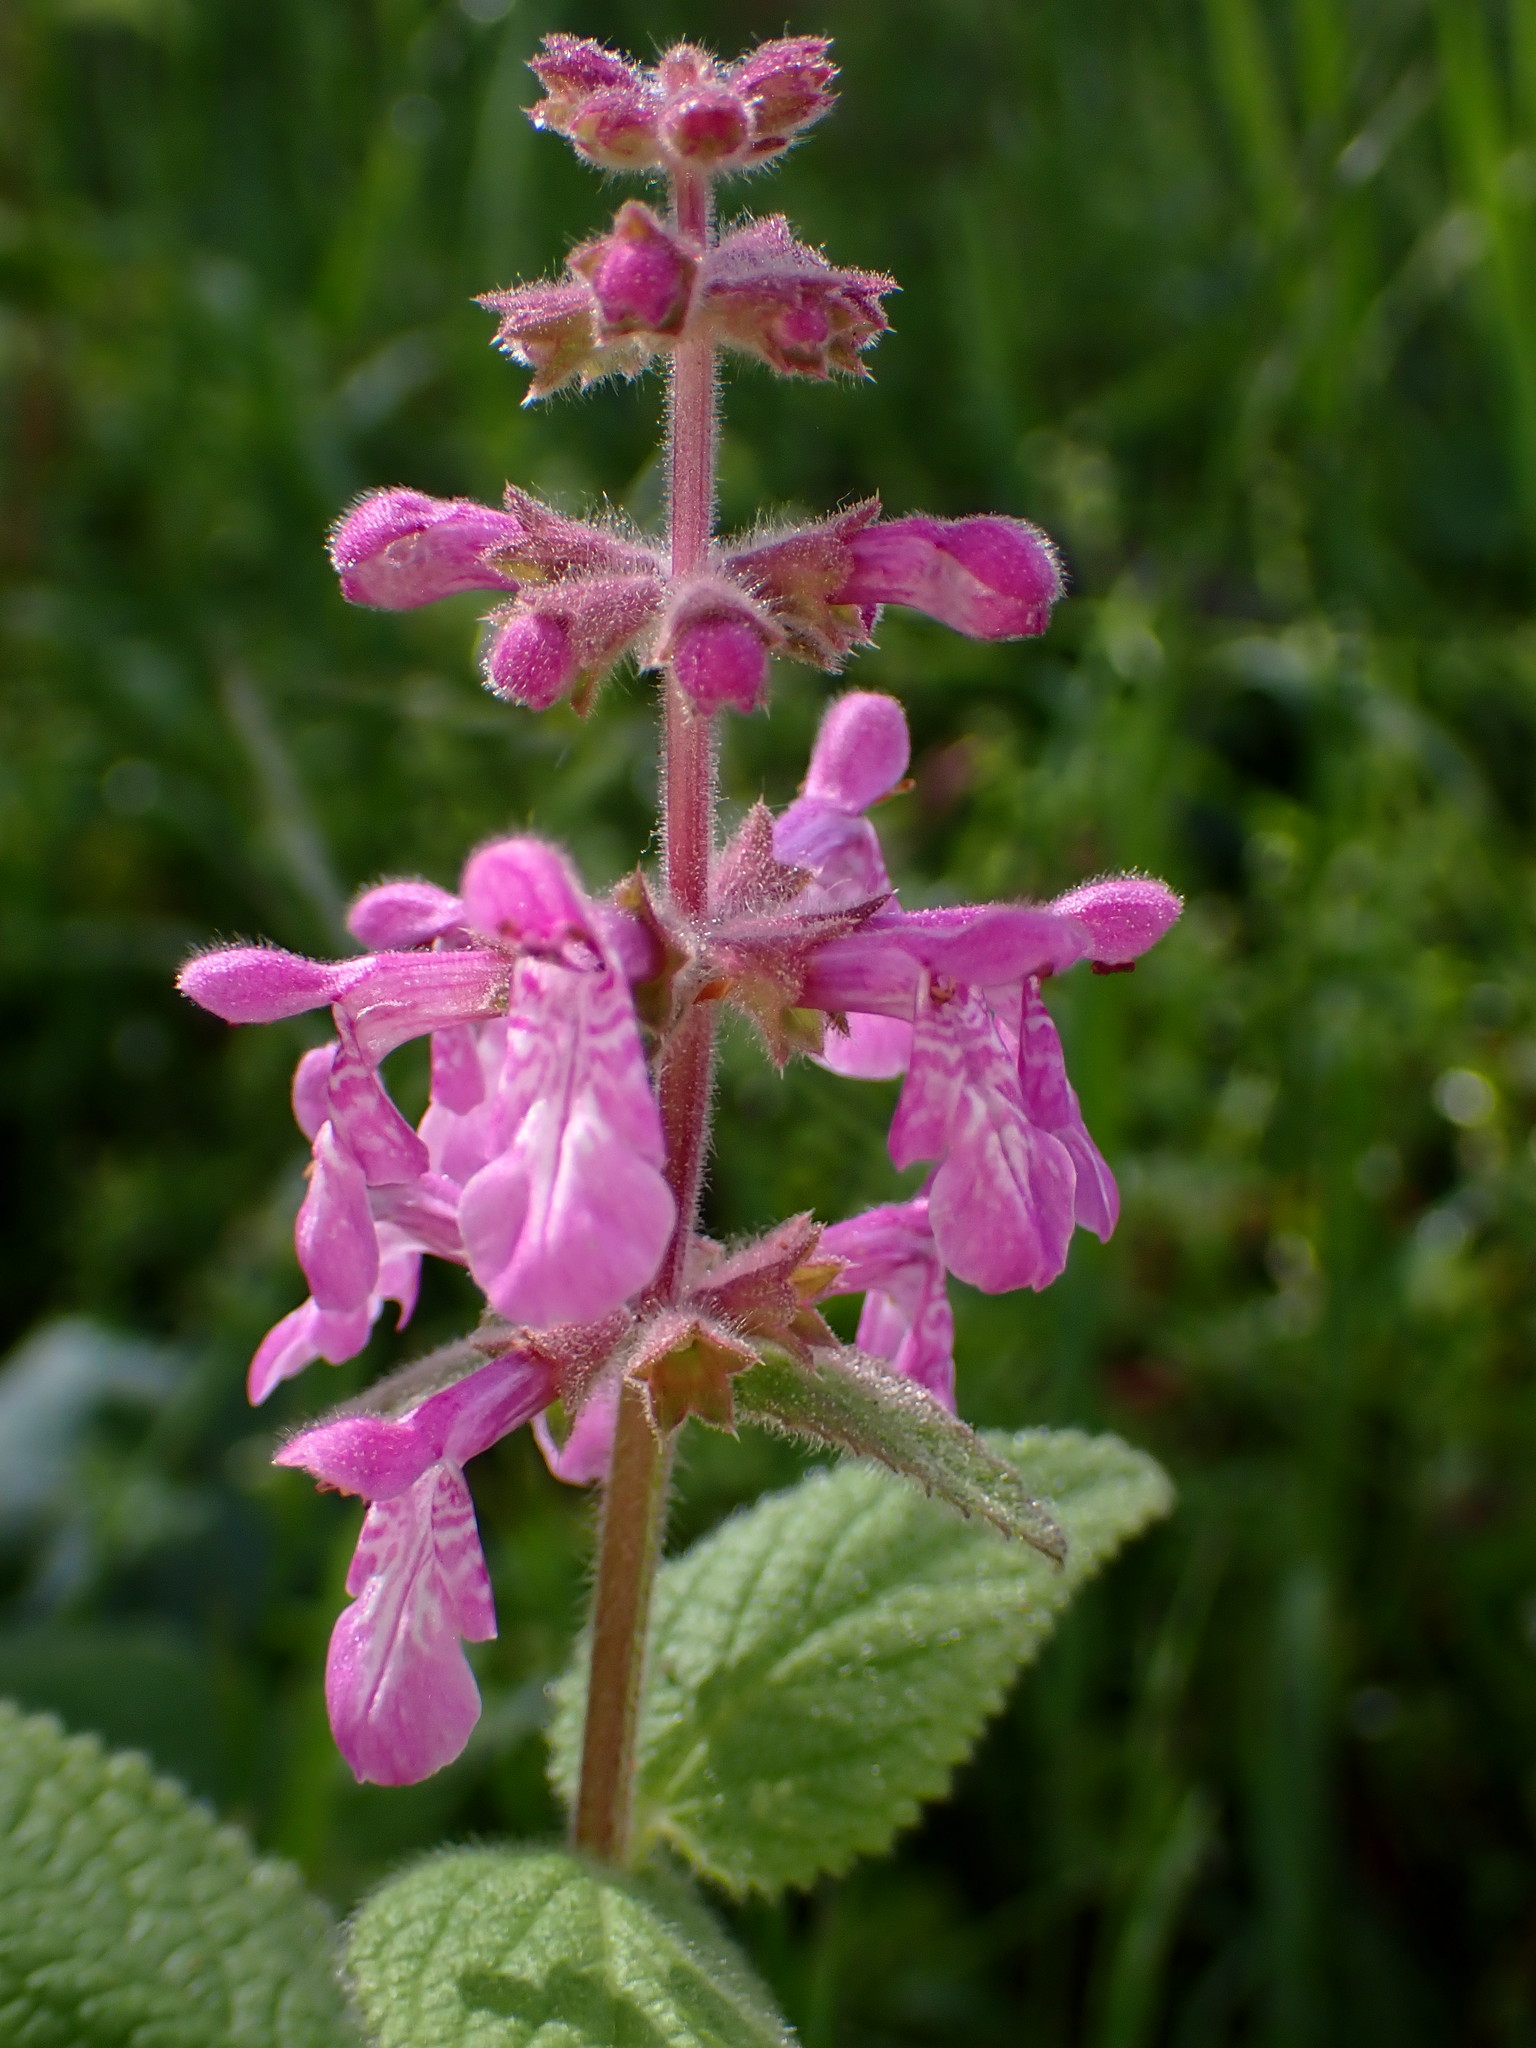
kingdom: Plantae
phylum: Tracheophyta
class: Magnoliopsida
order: Lamiales
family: Lamiaceae
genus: Stachys
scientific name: Stachys chamissonis
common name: Coastal hedge-nettle
